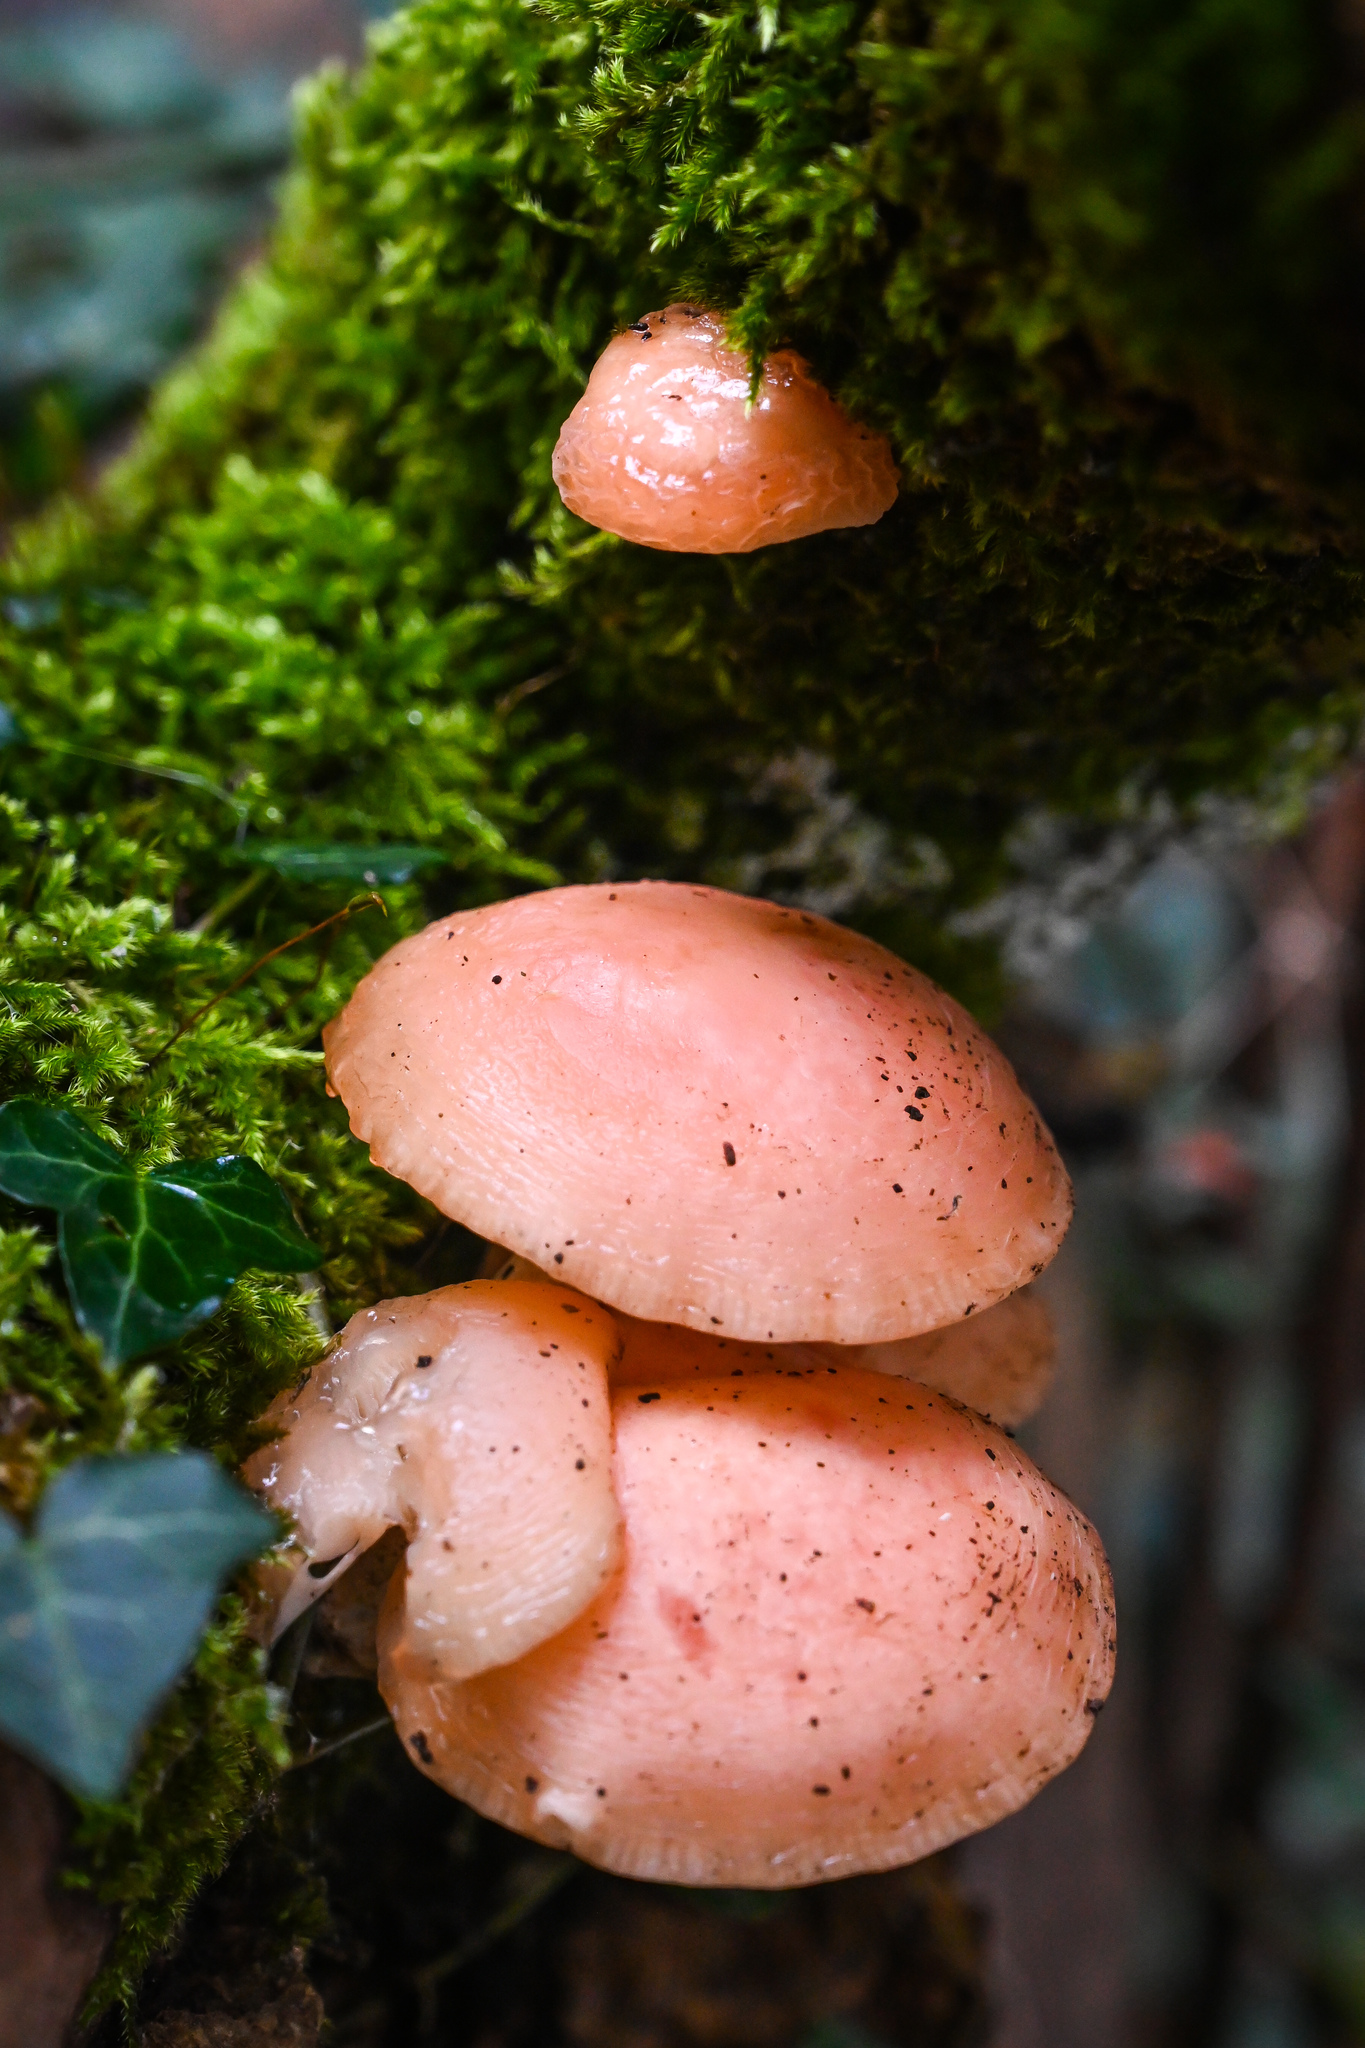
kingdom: Fungi
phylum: Basidiomycota
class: Agaricomycetes
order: Agaricales
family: Physalacriaceae
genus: Rhodotus
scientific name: Rhodotus palmatus
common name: Wrinkled peach
